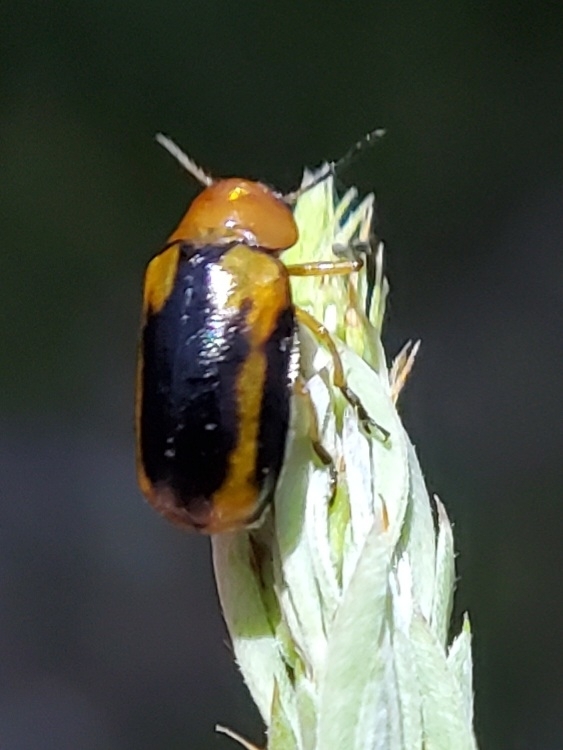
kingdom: Animalia
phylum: Arthropoda
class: Insecta
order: Coleoptera
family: Chrysomelidae
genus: Anomoea
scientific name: Anomoea laticlavia
